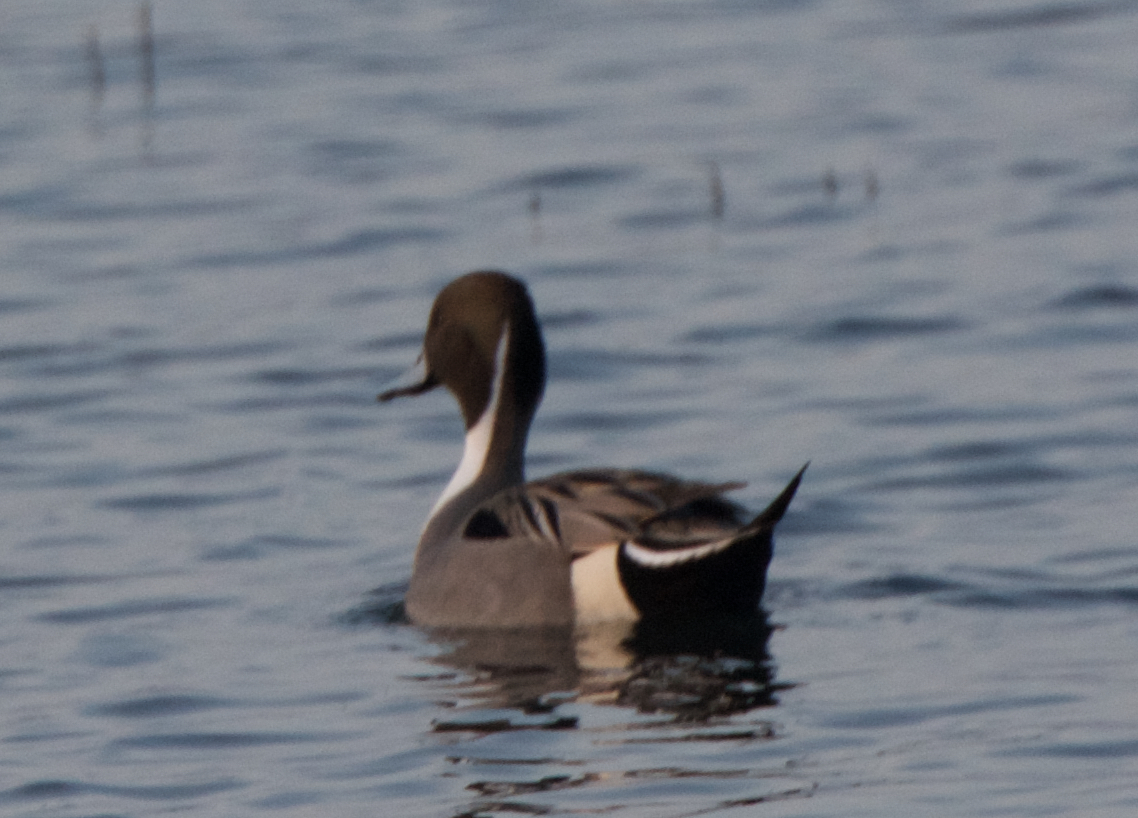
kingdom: Animalia
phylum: Chordata
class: Aves
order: Anseriformes
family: Anatidae
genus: Anas
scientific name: Anas acuta
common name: Northern pintail
